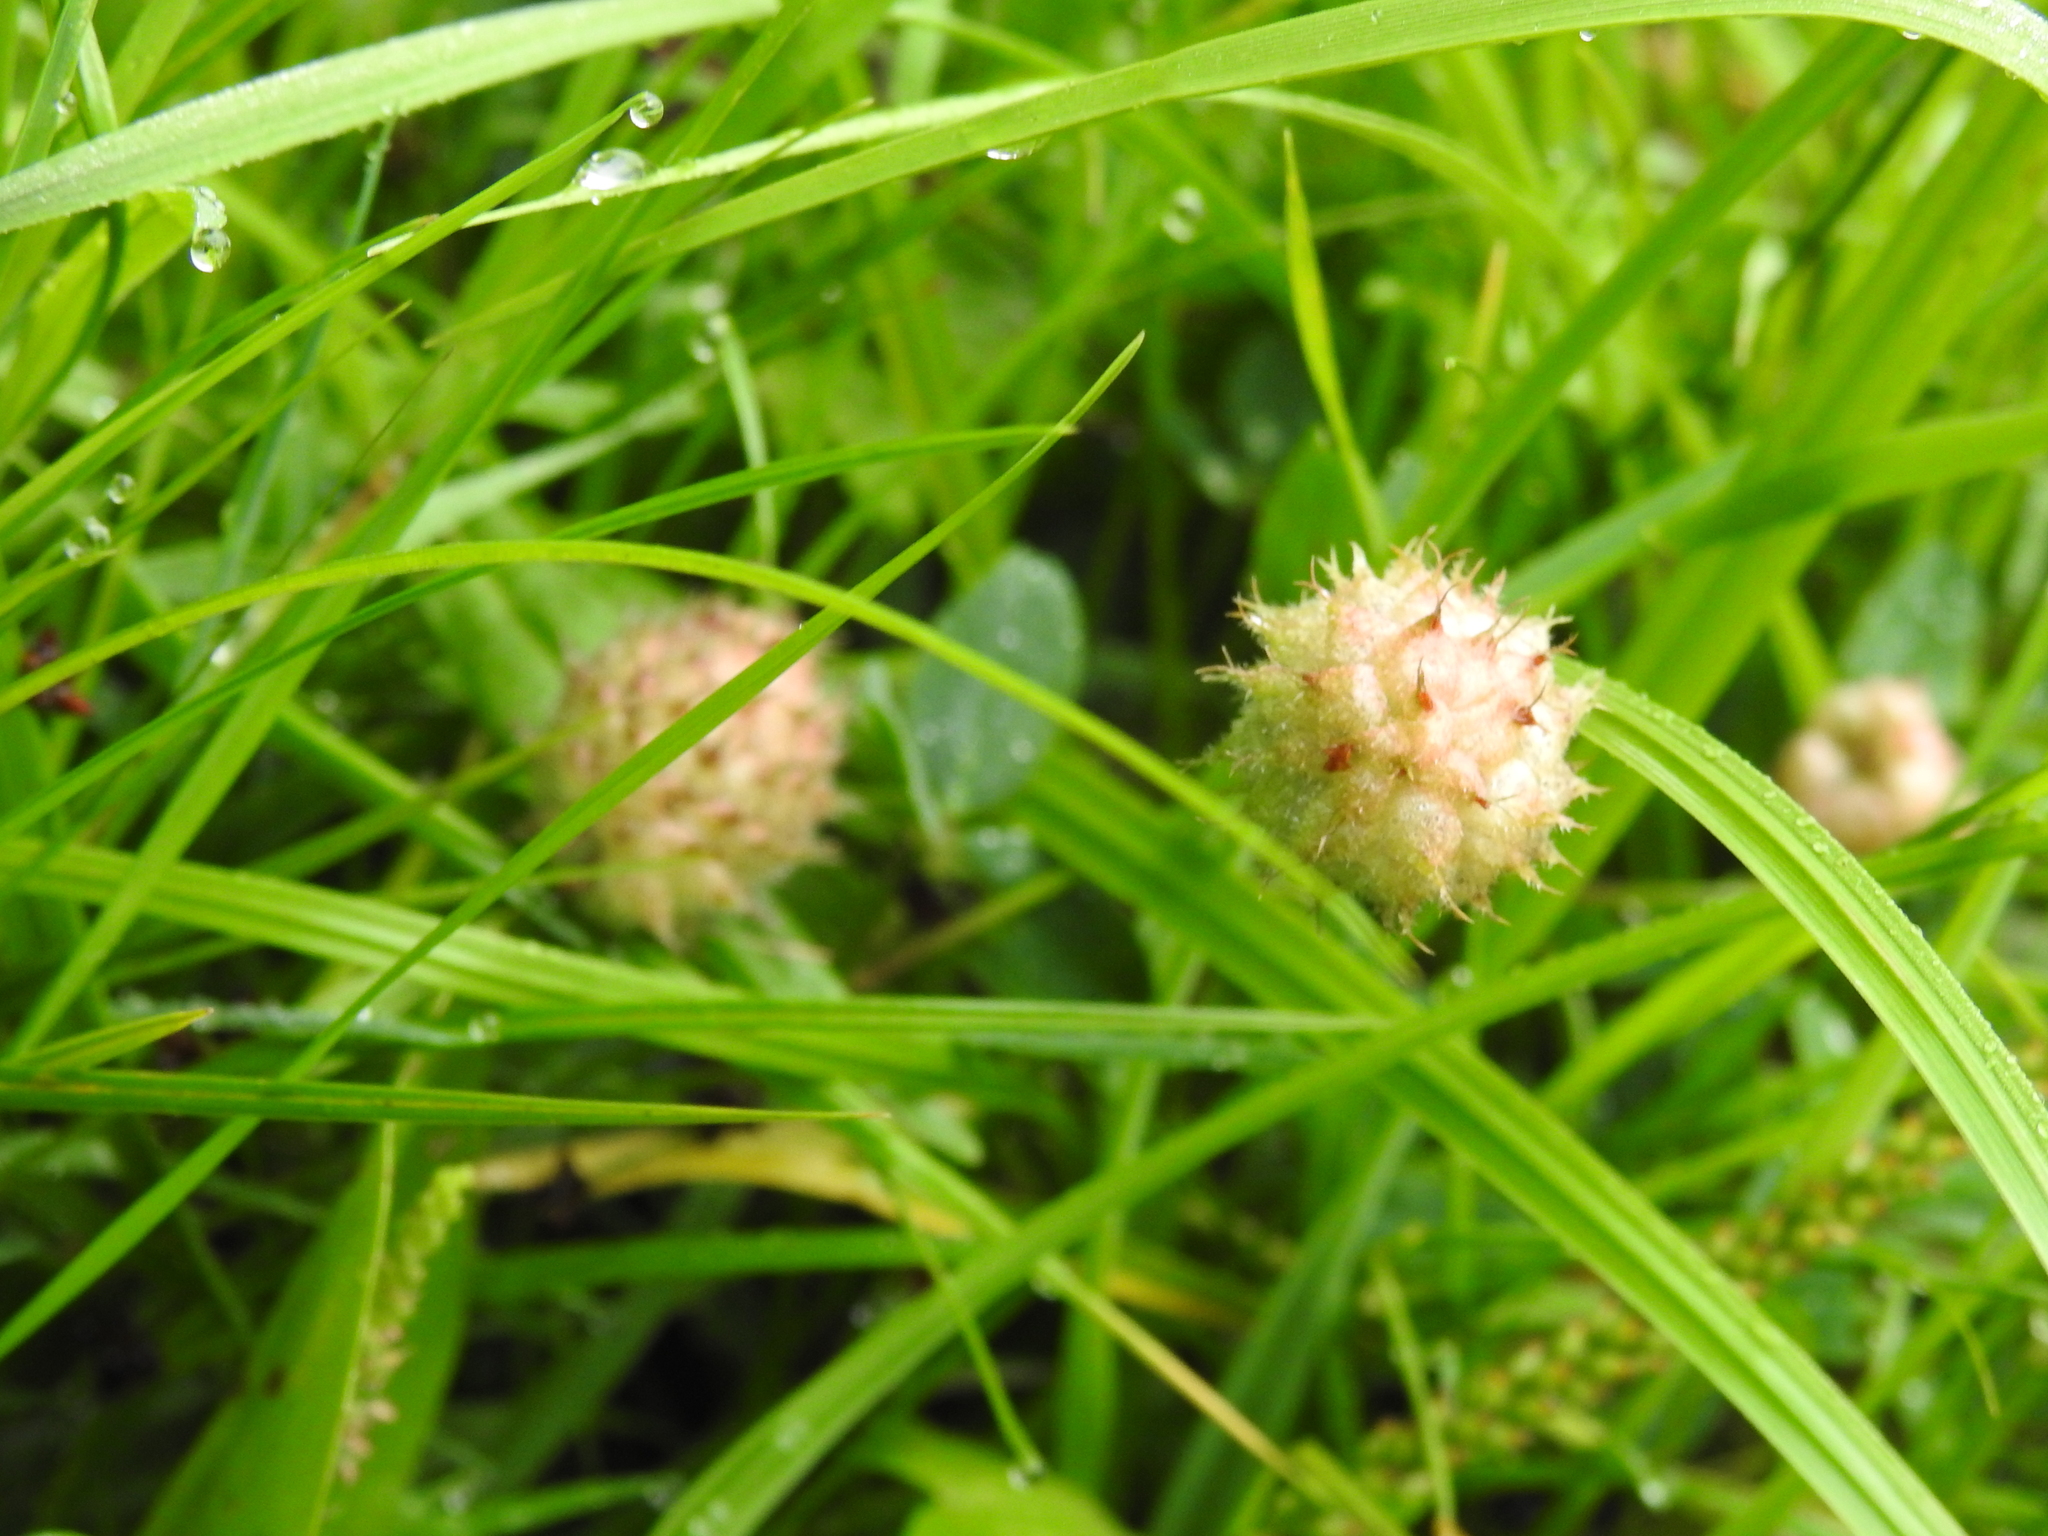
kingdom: Plantae
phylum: Tracheophyta
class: Magnoliopsida
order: Fabales
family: Fabaceae
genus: Trifolium
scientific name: Trifolium fragiferum
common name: Strawberry clover
